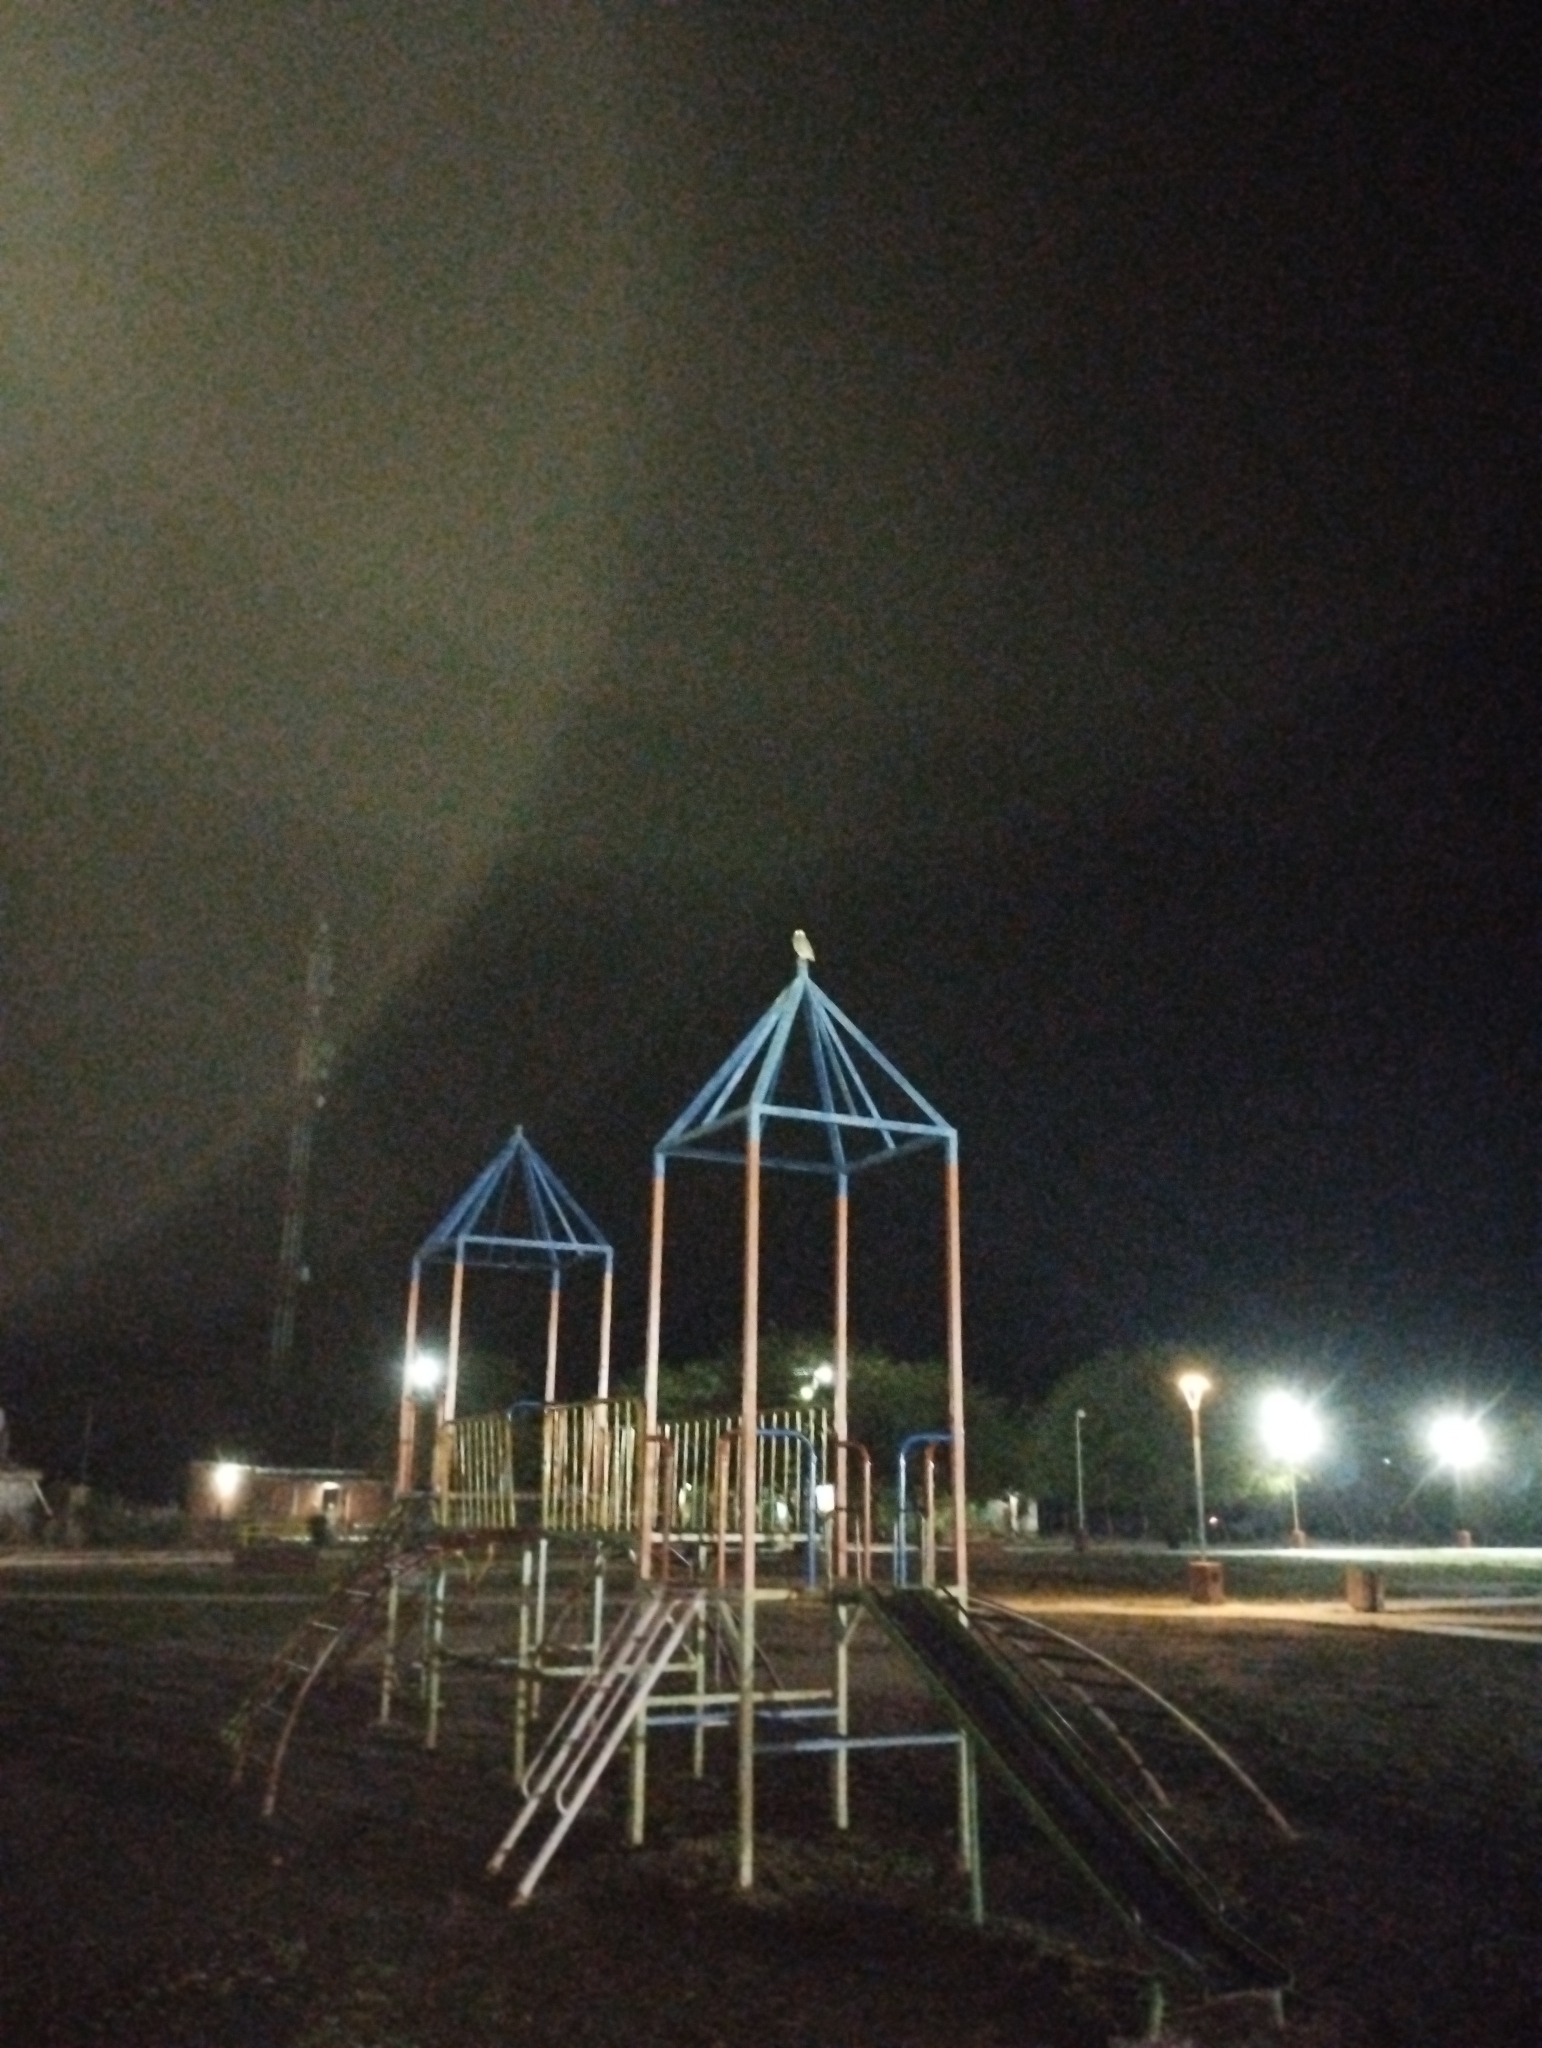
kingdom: Animalia
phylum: Chordata
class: Aves
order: Strigiformes
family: Strigidae
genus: Athene
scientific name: Athene cunicularia
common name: Burrowing owl
